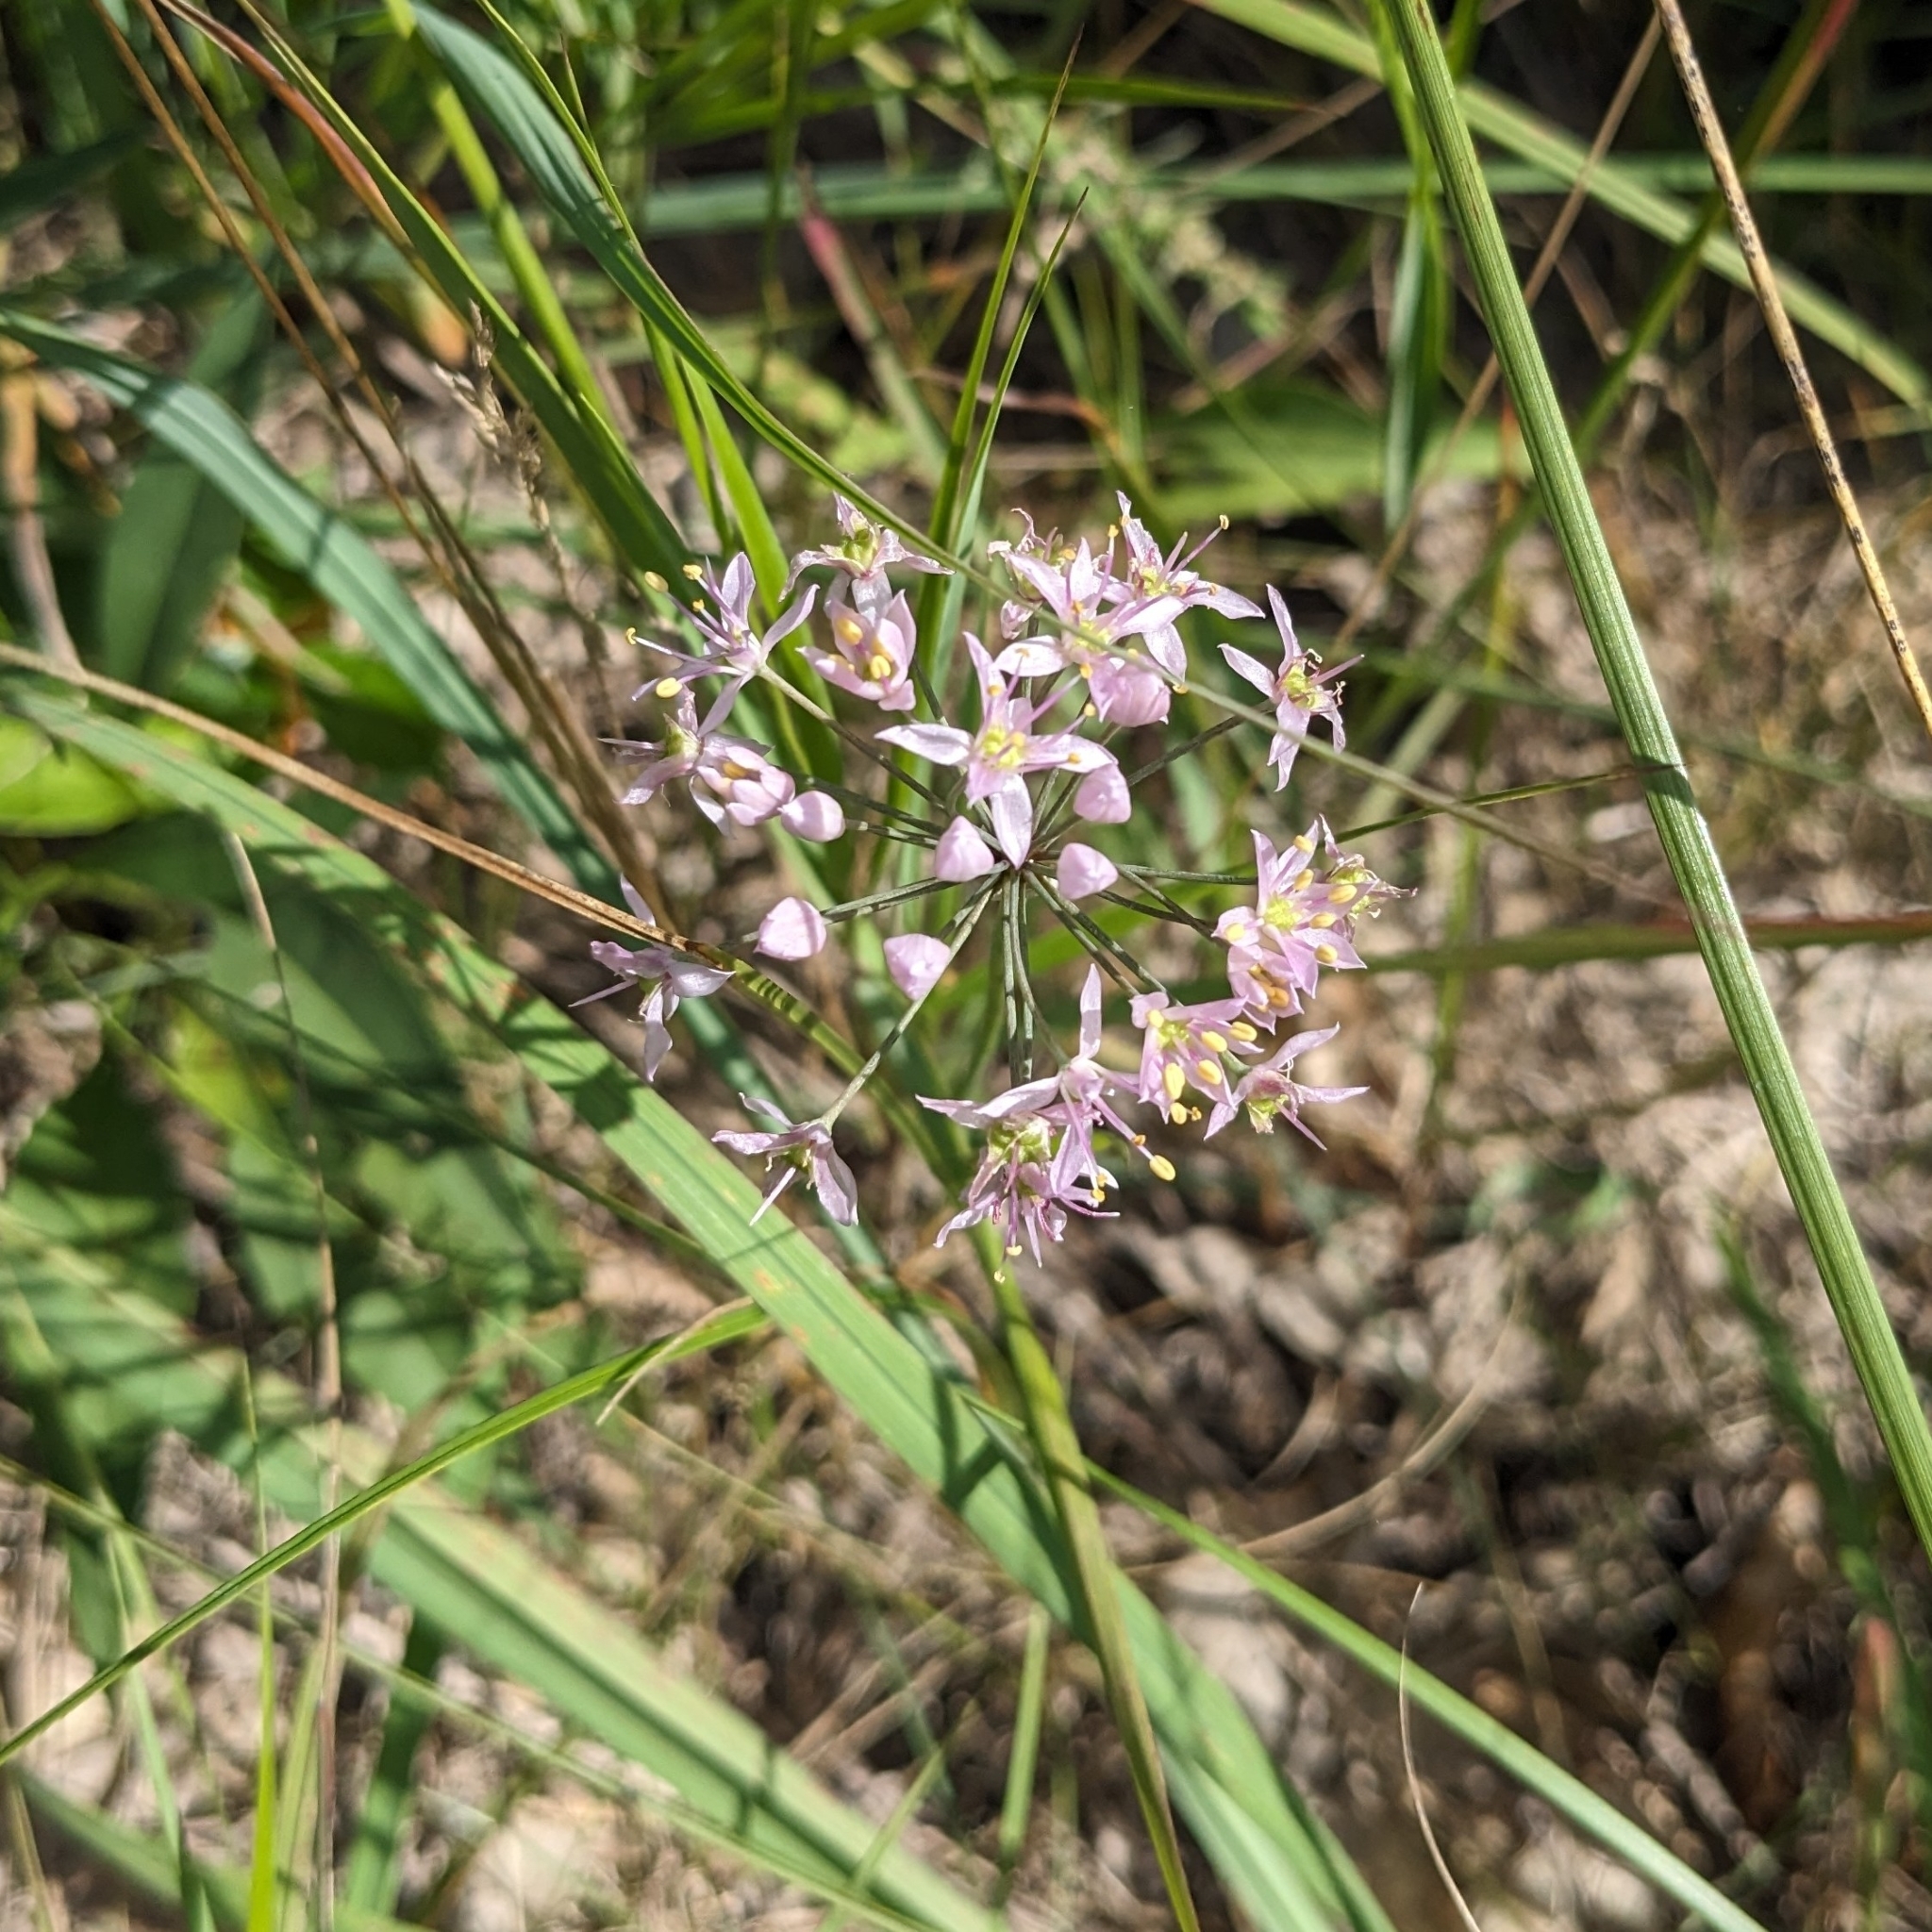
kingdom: Plantae
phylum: Tracheophyta
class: Liliopsida
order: Asparagales
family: Amaryllidaceae
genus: Allium
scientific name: Allium stellatum
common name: Autumn onion
